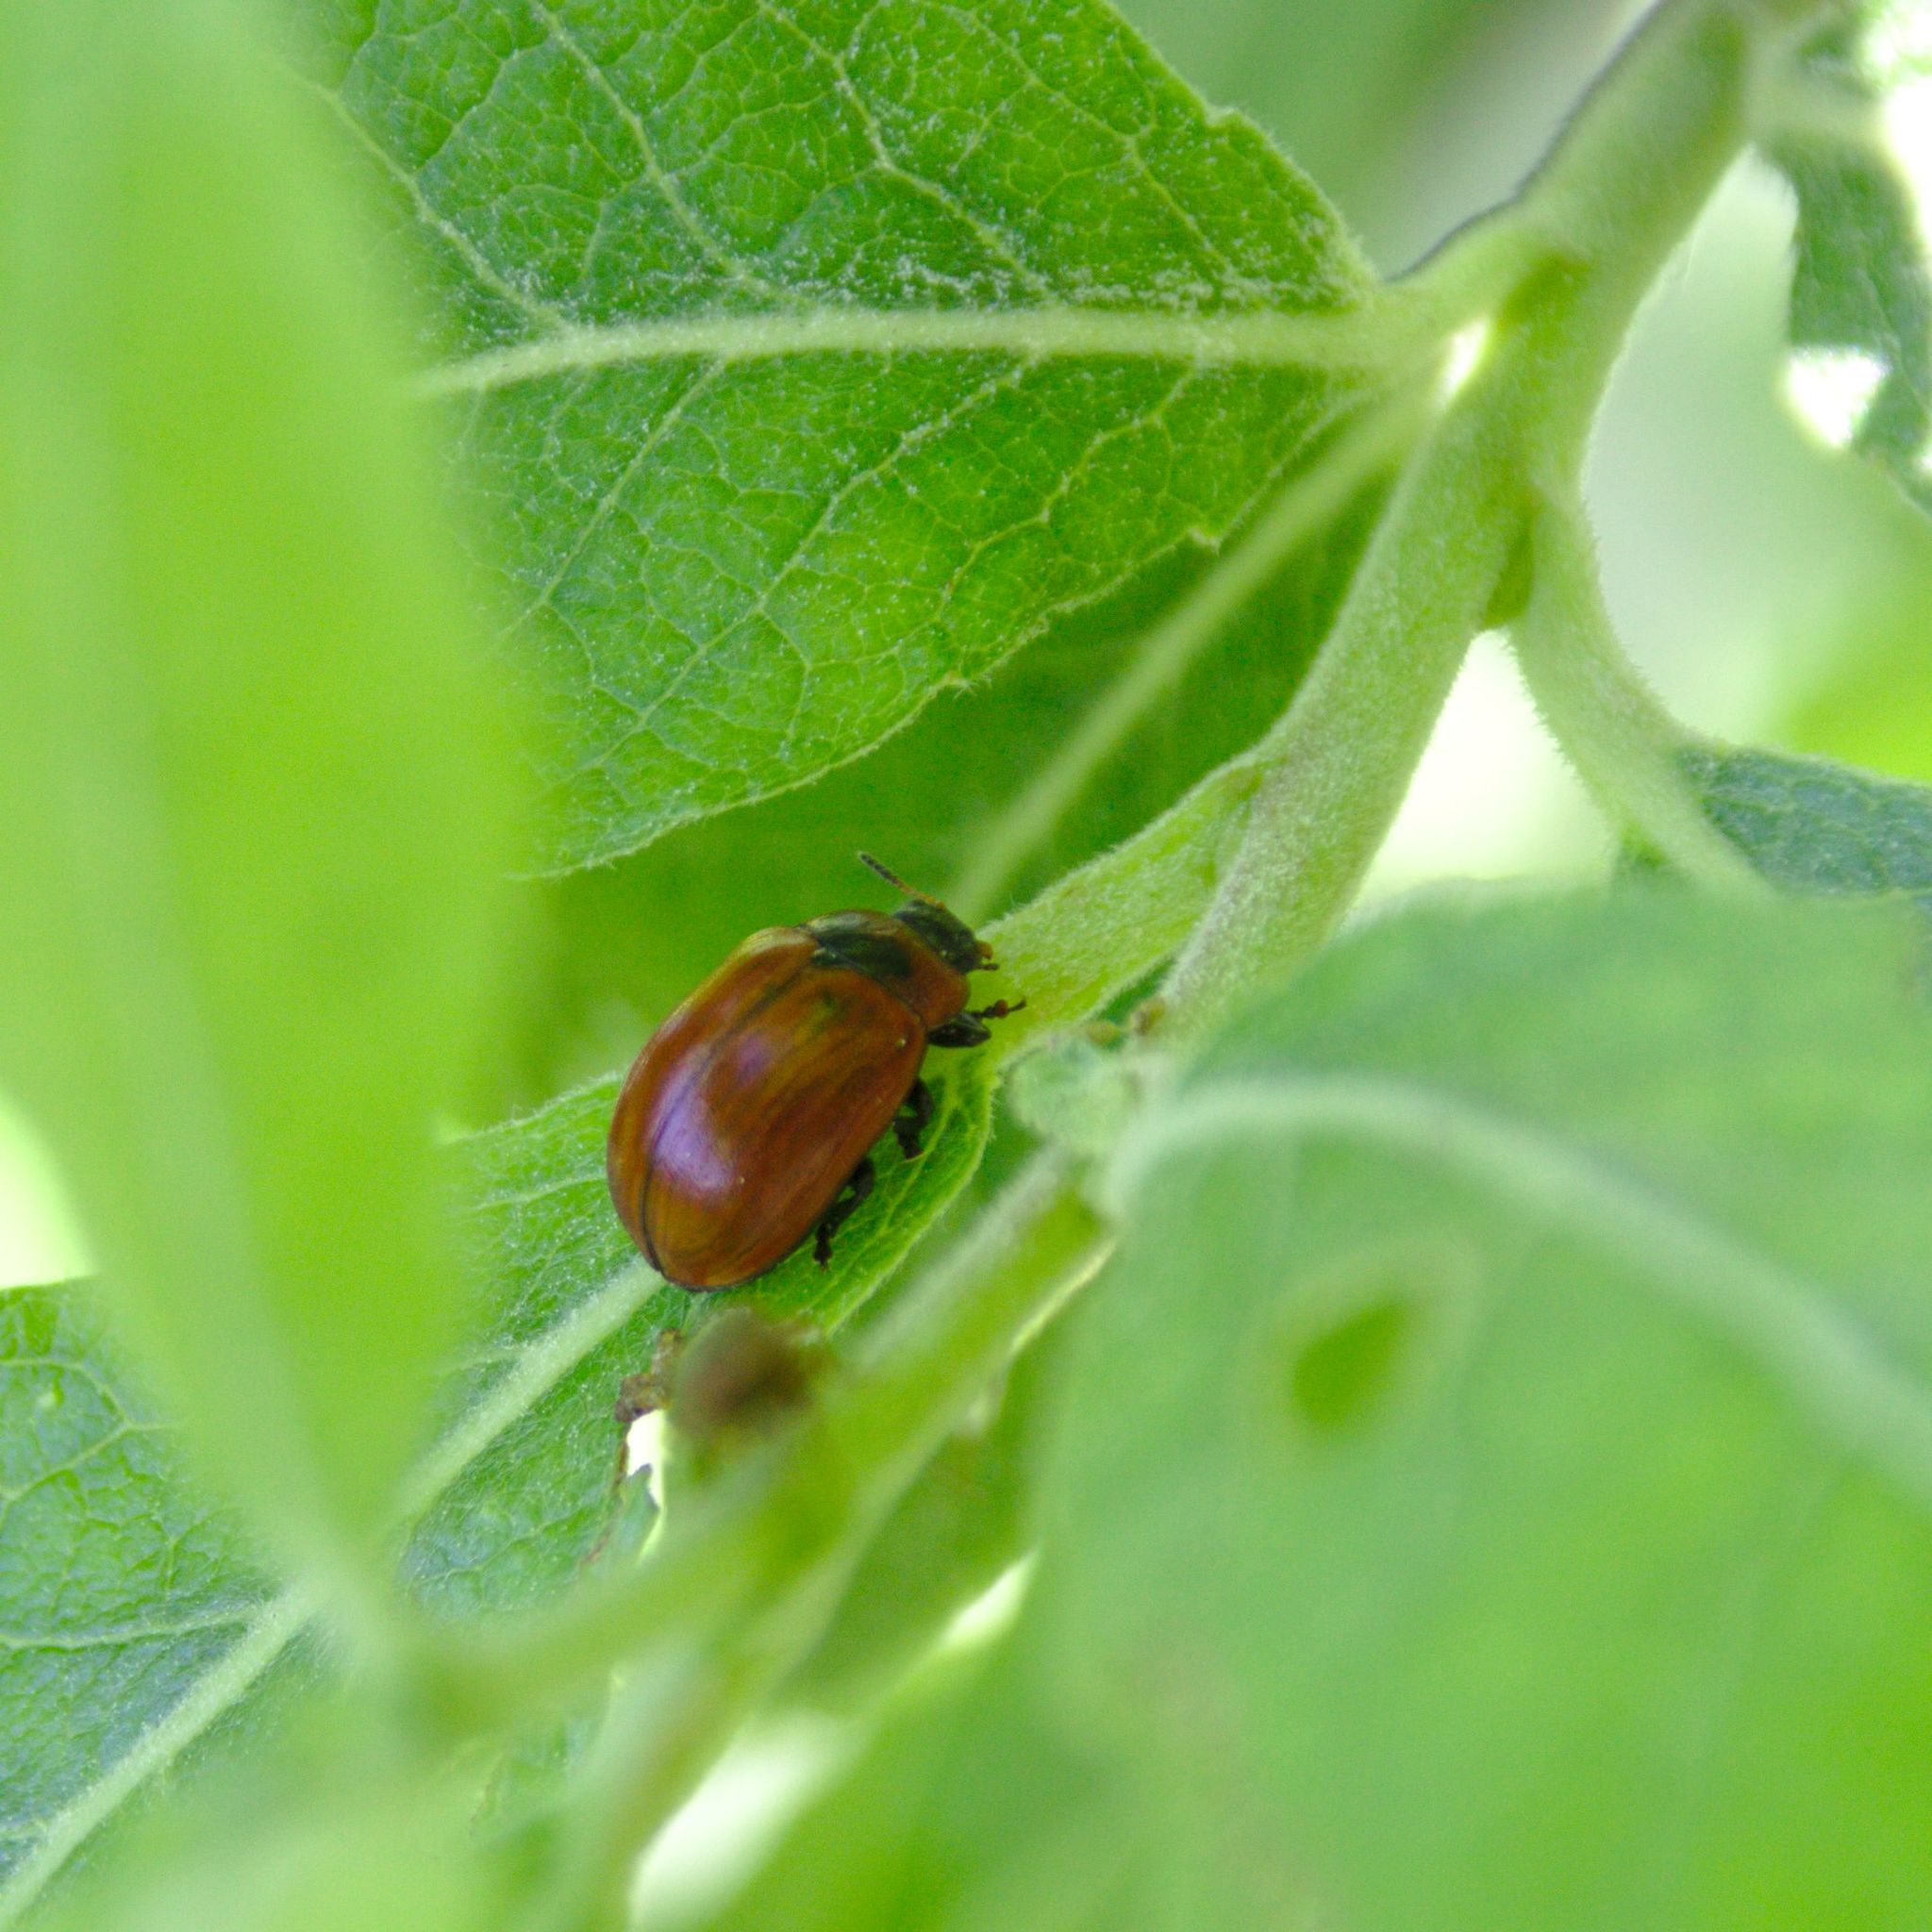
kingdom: Animalia
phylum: Arthropoda
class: Insecta
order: Coleoptera
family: Chrysomelidae
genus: Gonioctena
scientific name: Gonioctena viminalis
